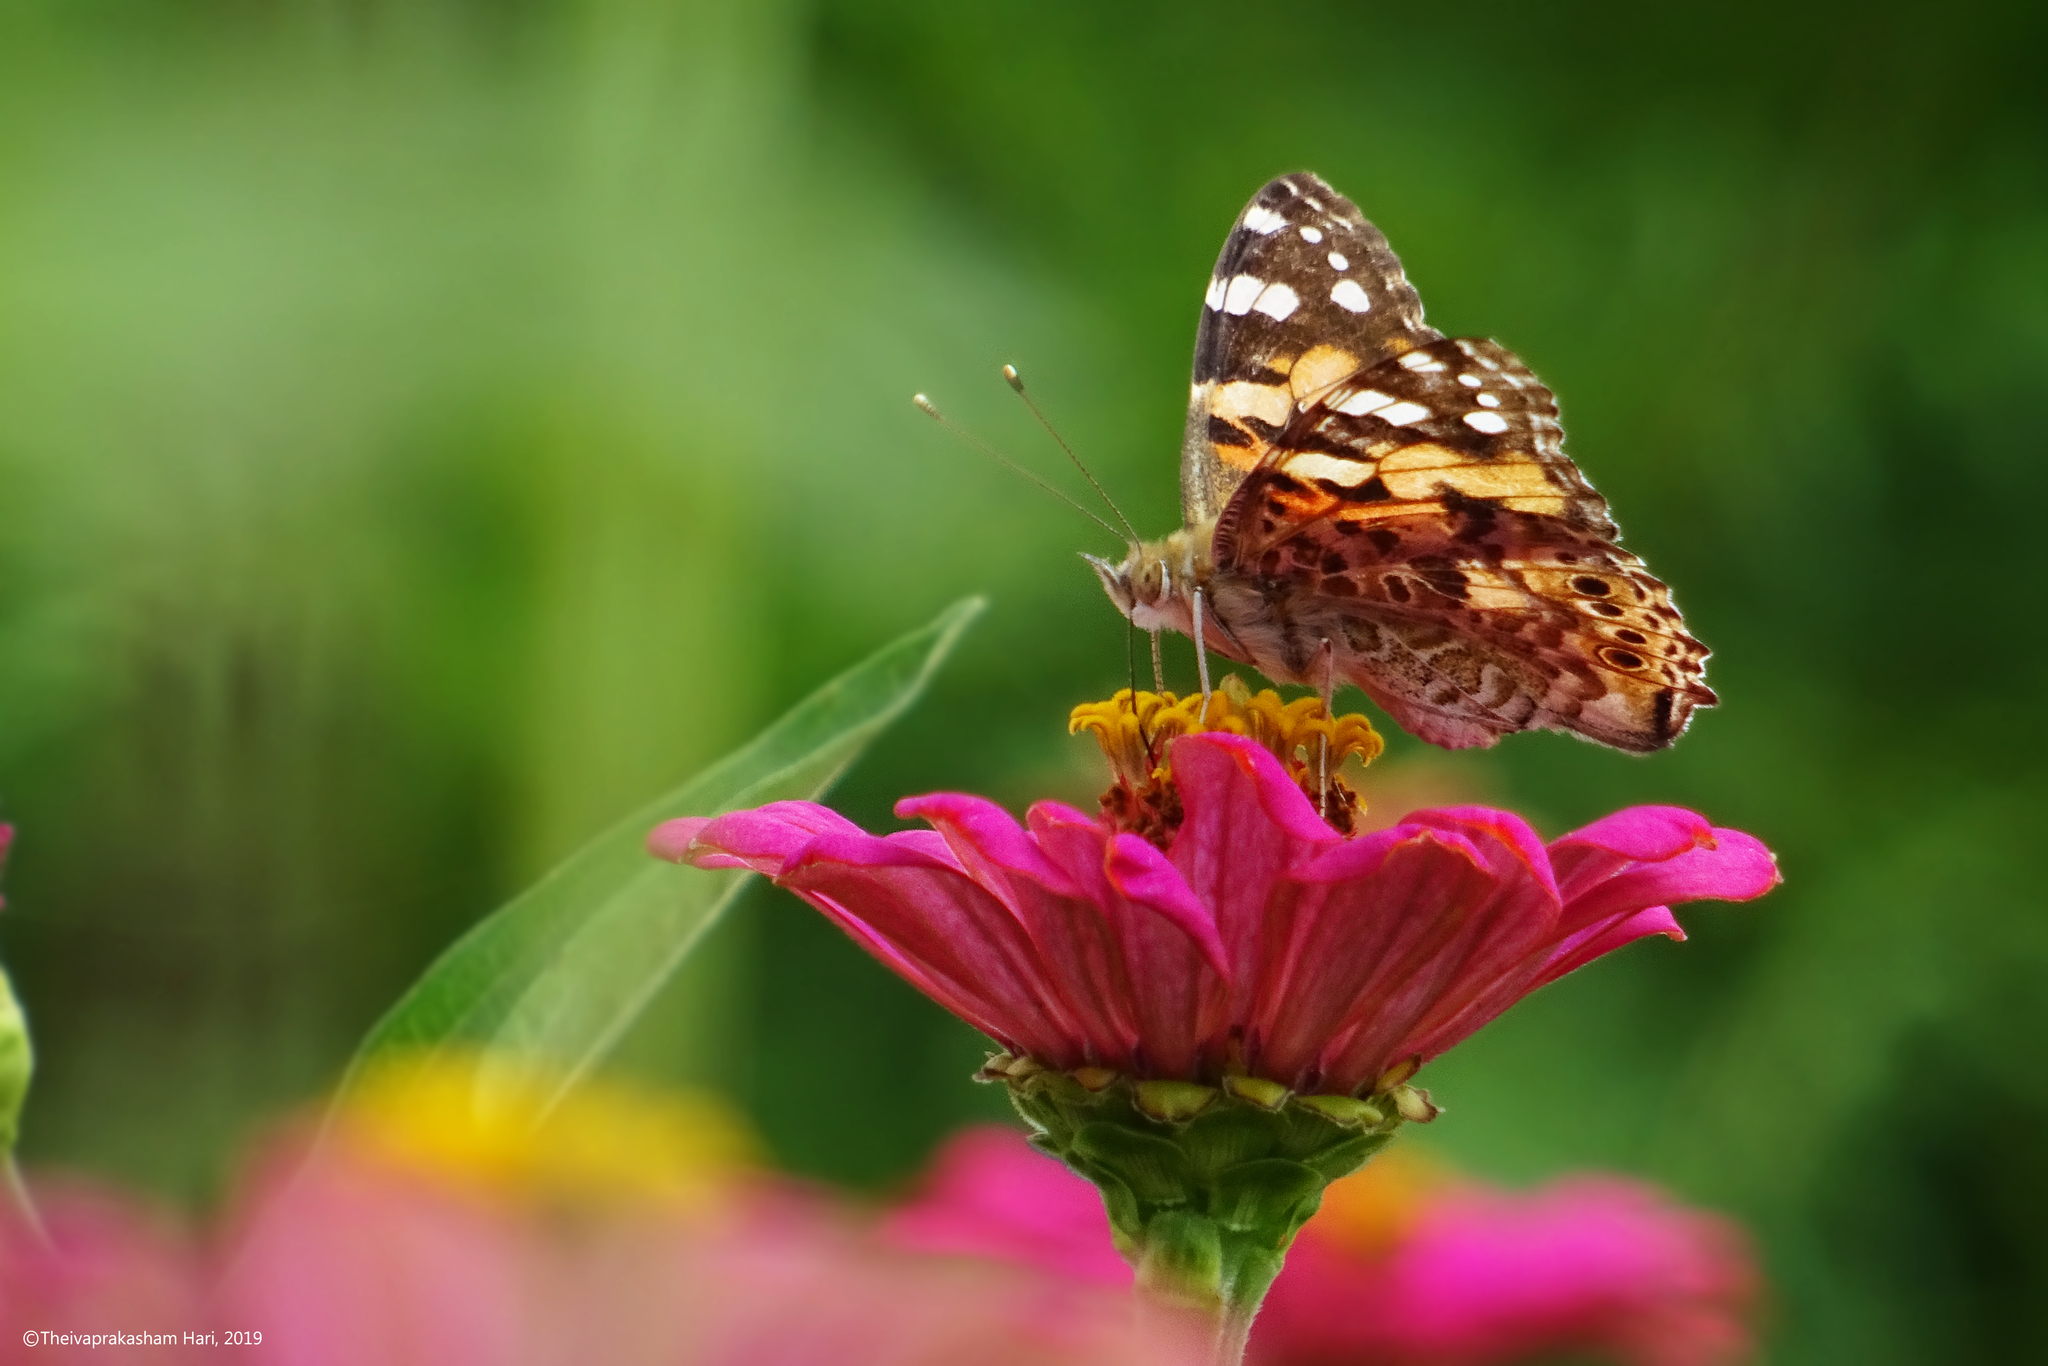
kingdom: Animalia
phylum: Arthropoda
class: Insecta
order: Lepidoptera
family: Nymphalidae
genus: Vanessa
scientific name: Vanessa cardui
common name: Painted lady
